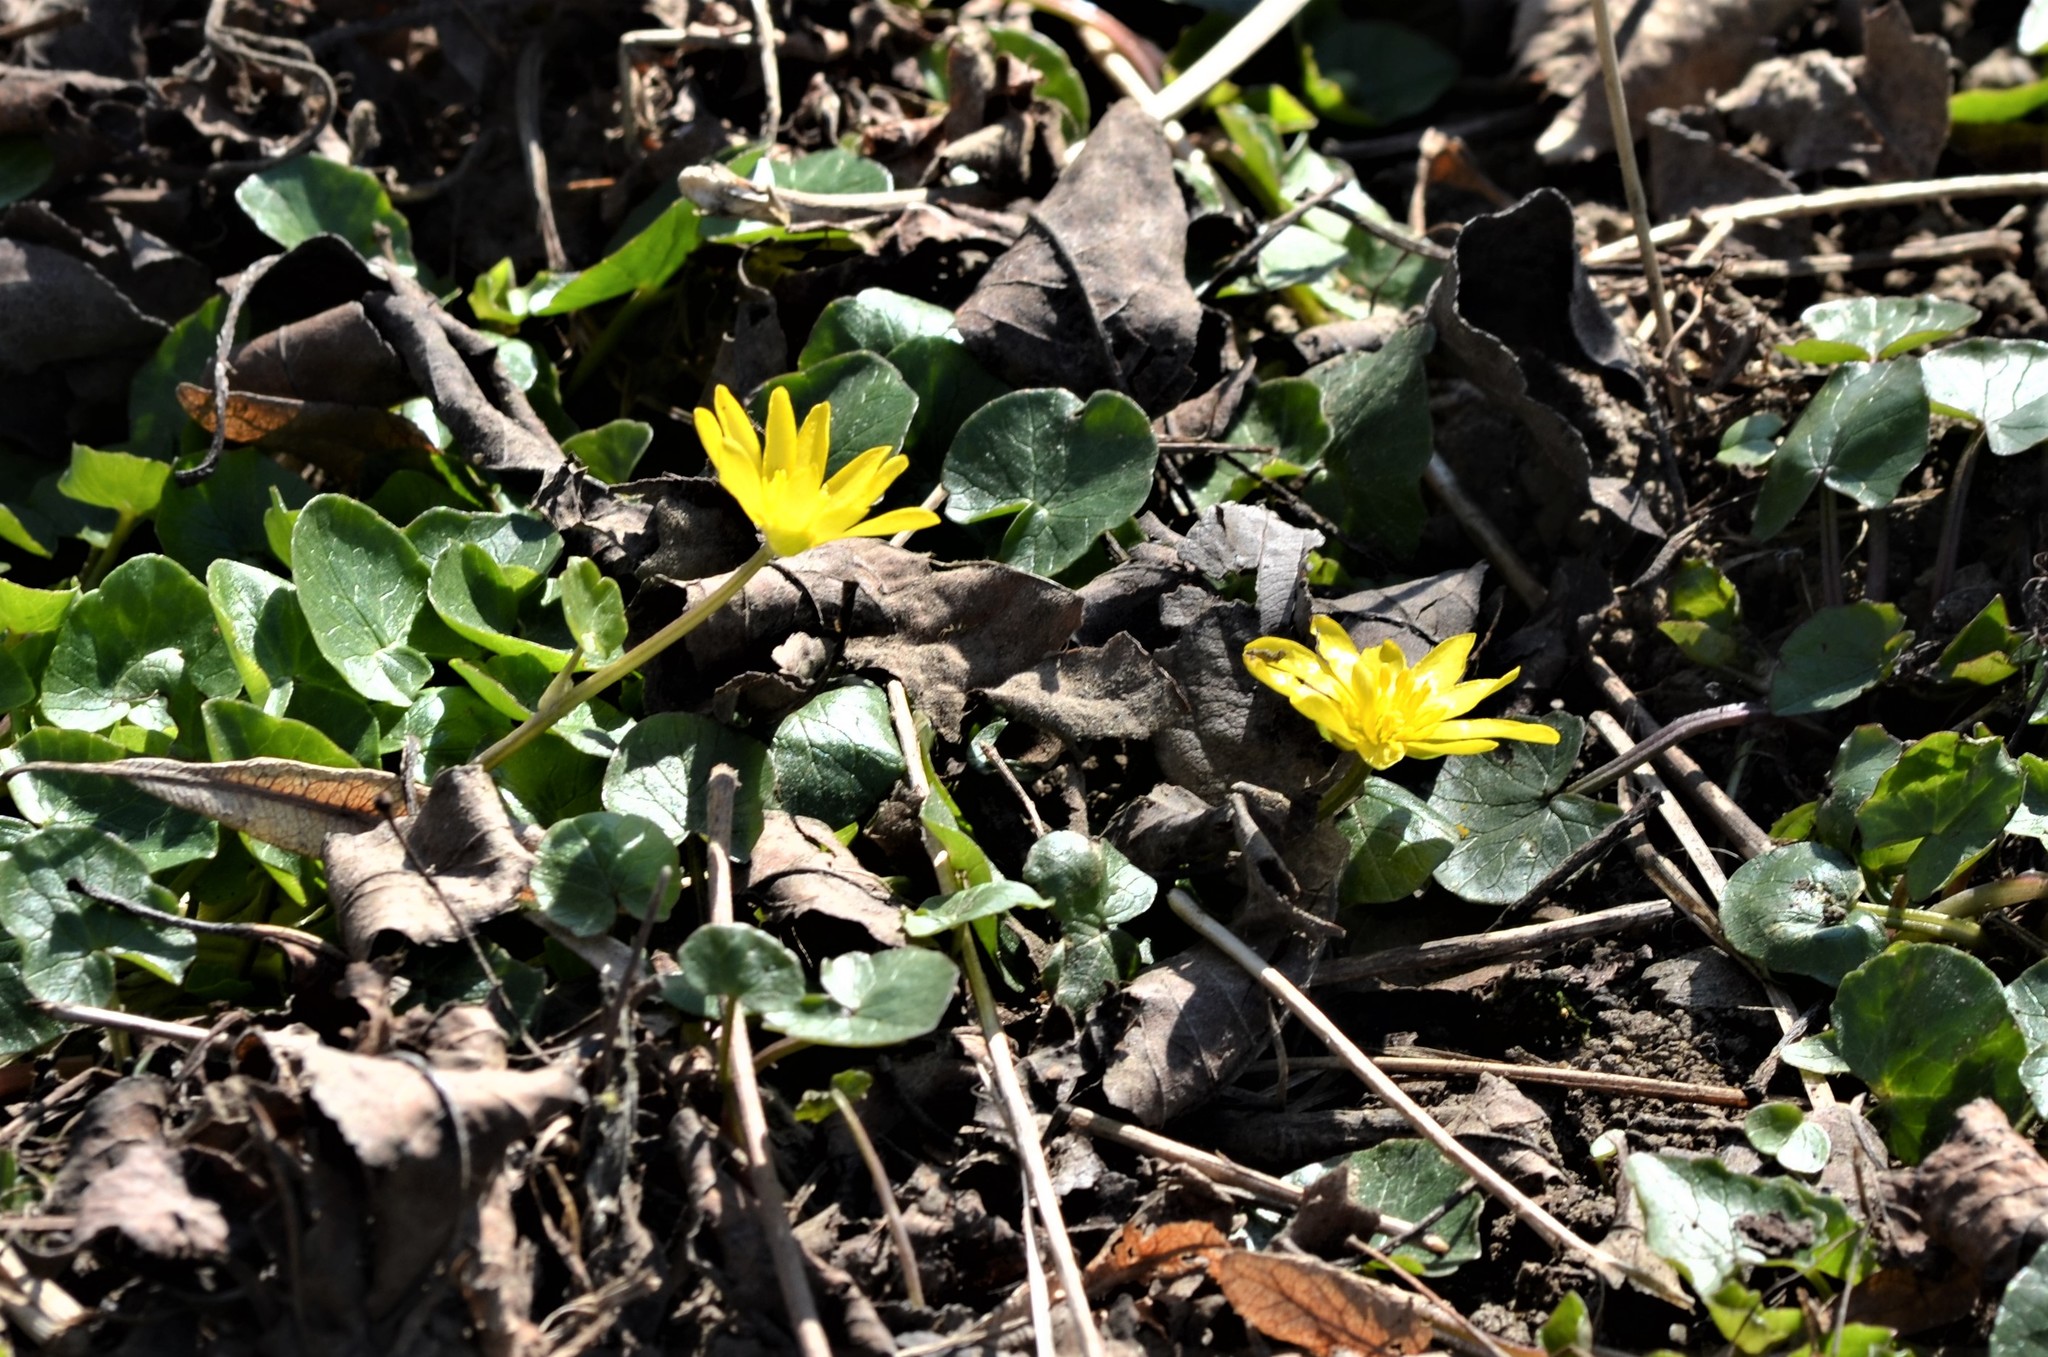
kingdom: Plantae
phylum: Tracheophyta
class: Magnoliopsida
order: Ranunculales
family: Ranunculaceae
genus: Ficaria
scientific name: Ficaria verna
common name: Lesser celandine
